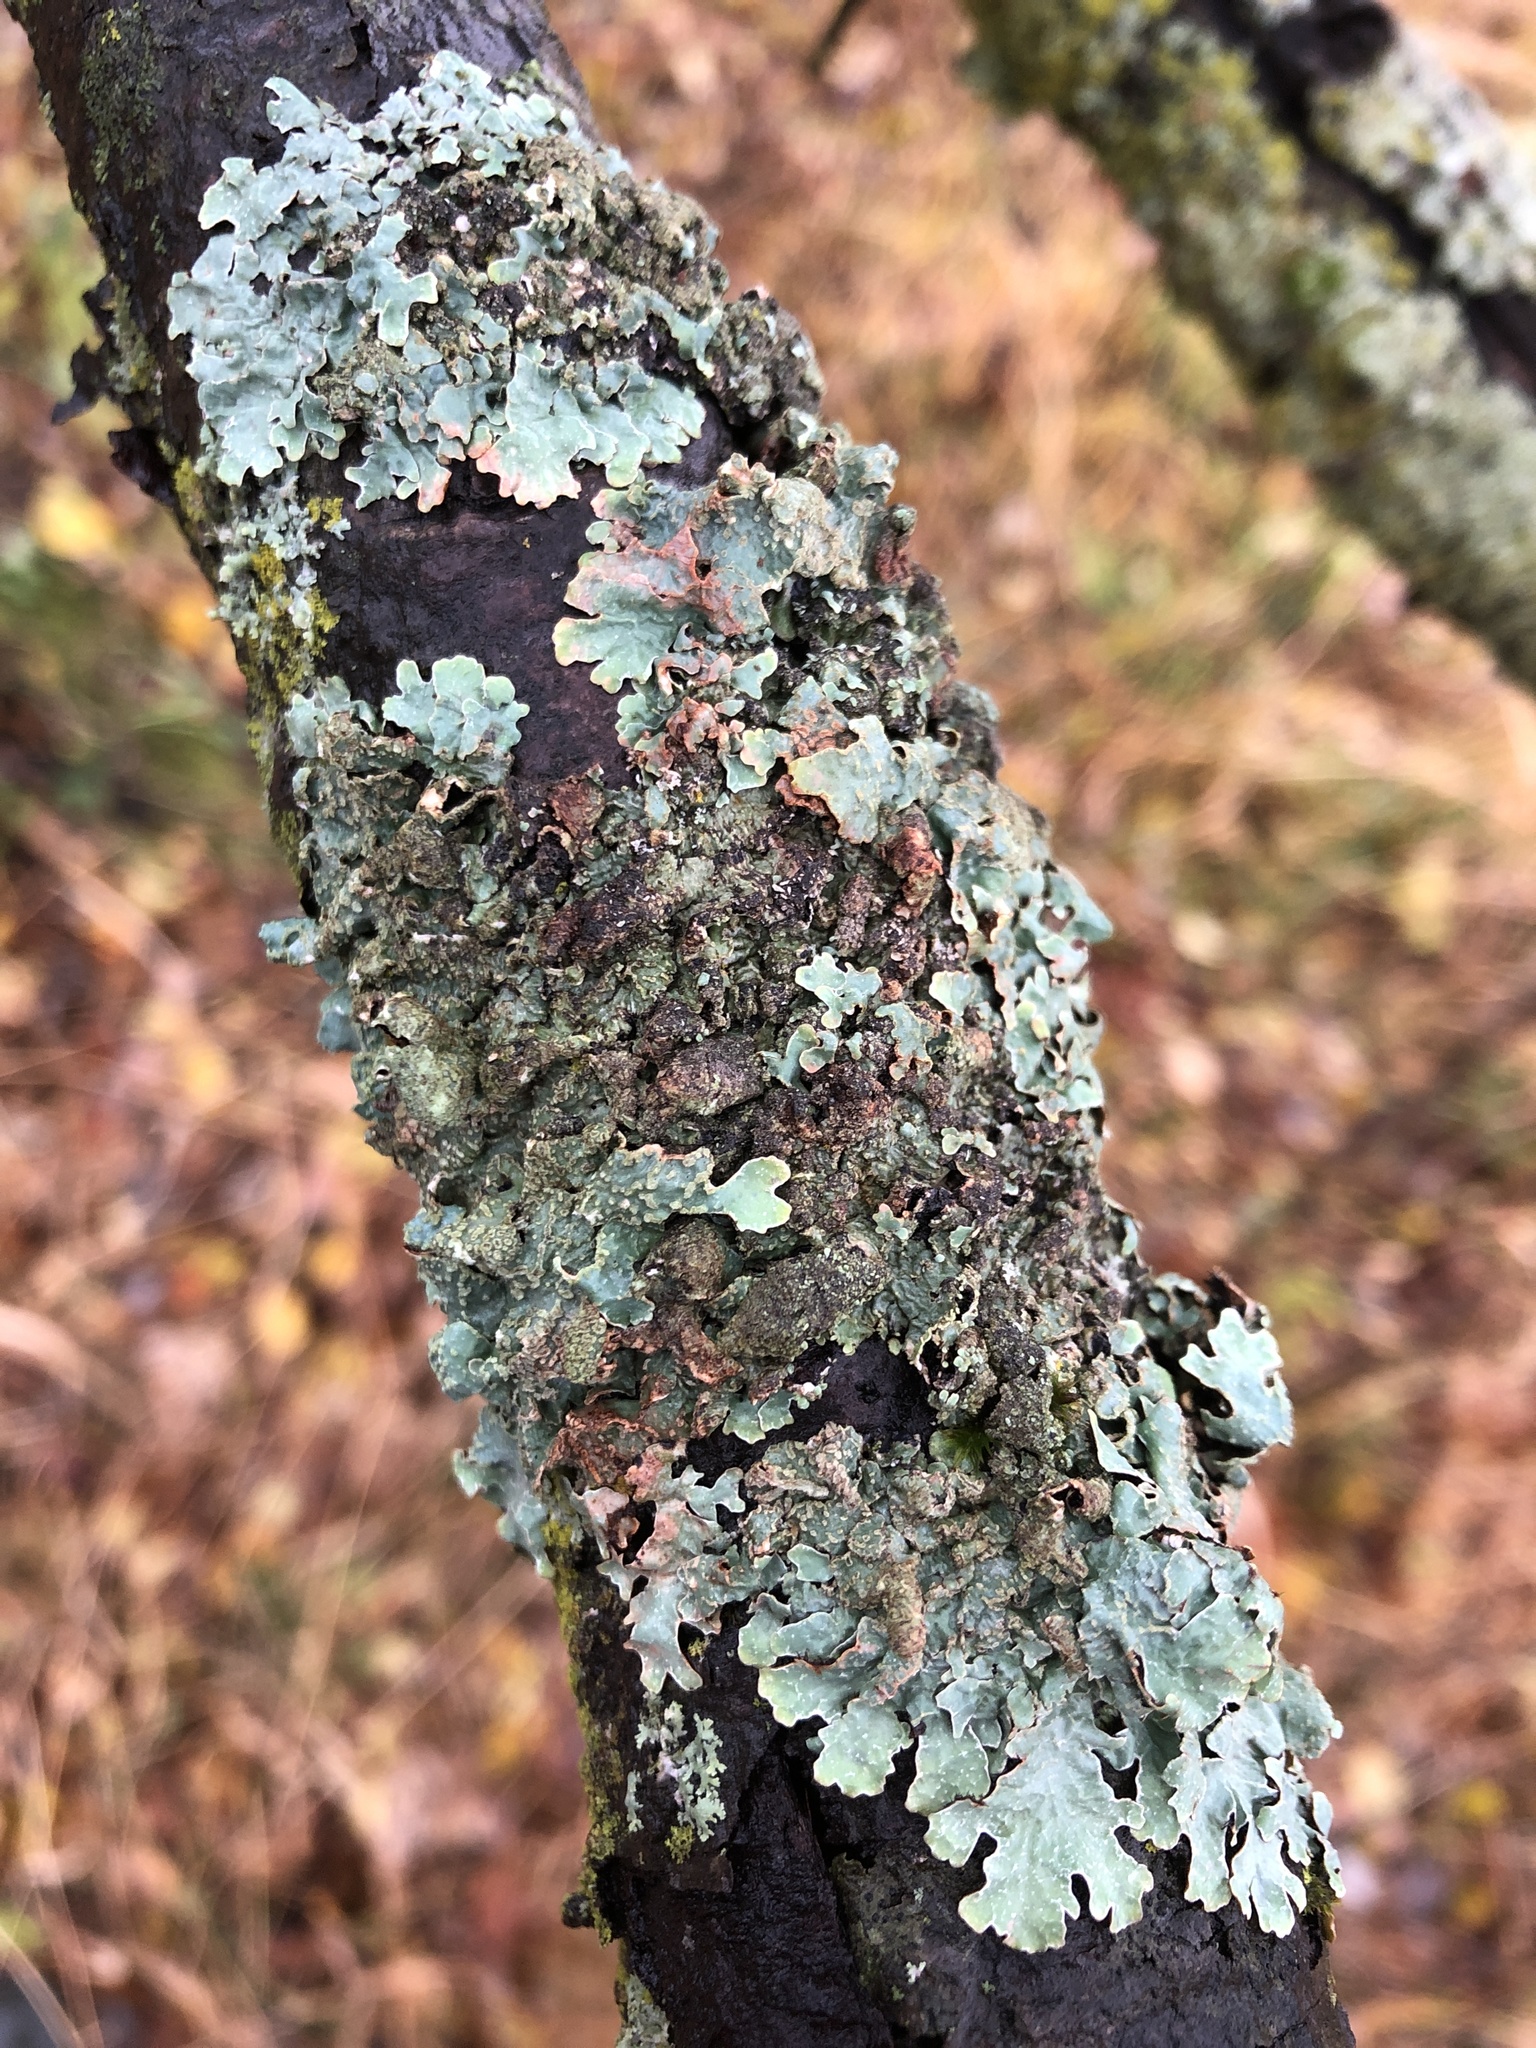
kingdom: Fungi
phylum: Ascomycota
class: Lecanoromycetes
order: Lecanorales
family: Parmeliaceae
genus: Parmelia
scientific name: Parmelia sulcata
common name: Netted shield lichen
